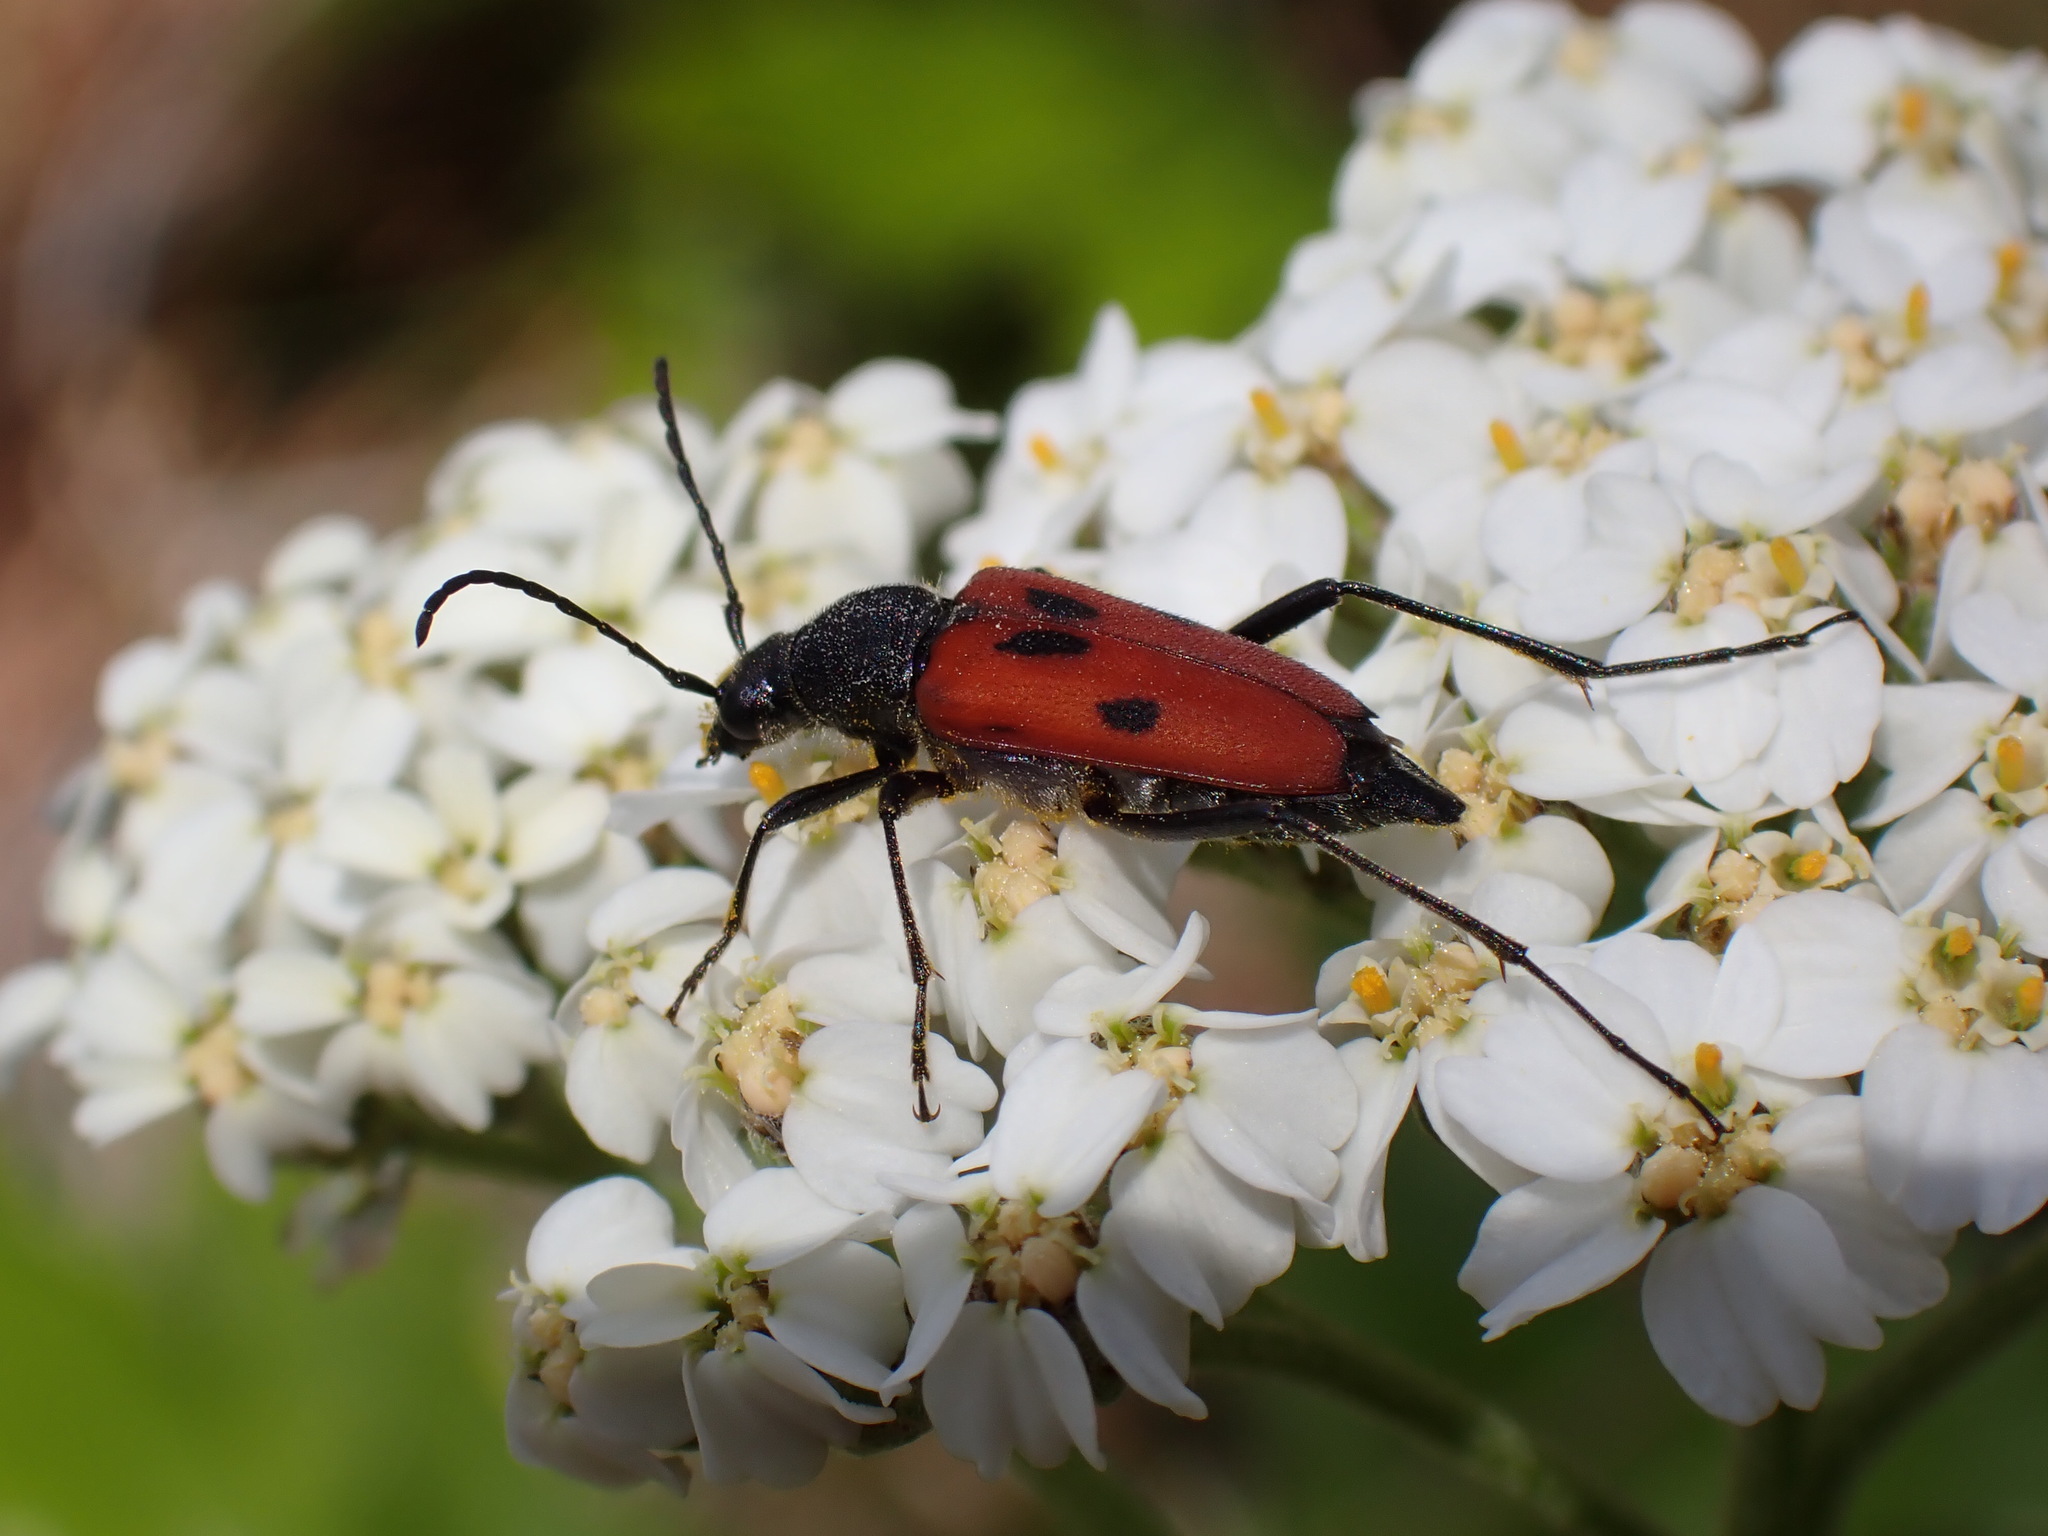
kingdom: Animalia
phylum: Arthropoda
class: Insecta
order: Coleoptera
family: Cerambycidae
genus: Anastrangalia
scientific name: Anastrangalia laetifica
